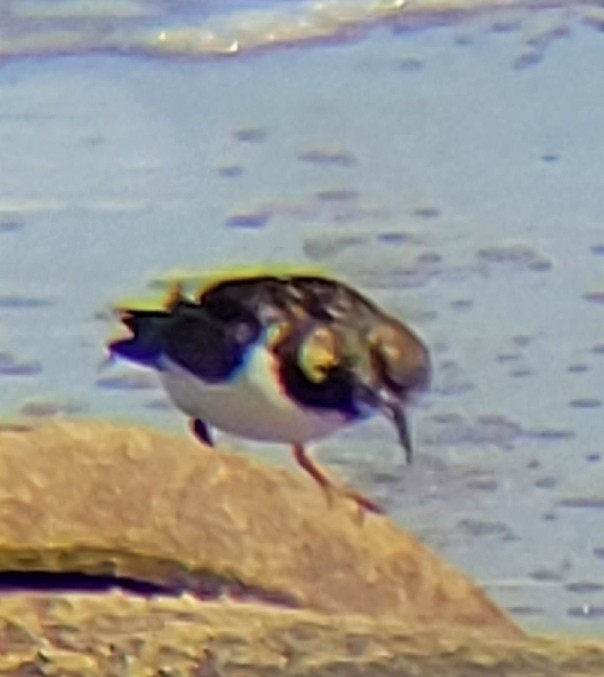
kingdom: Animalia
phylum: Chordata
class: Aves
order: Charadriiformes
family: Scolopacidae
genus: Arenaria
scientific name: Arenaria interpres
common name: Ruddy turnstone
